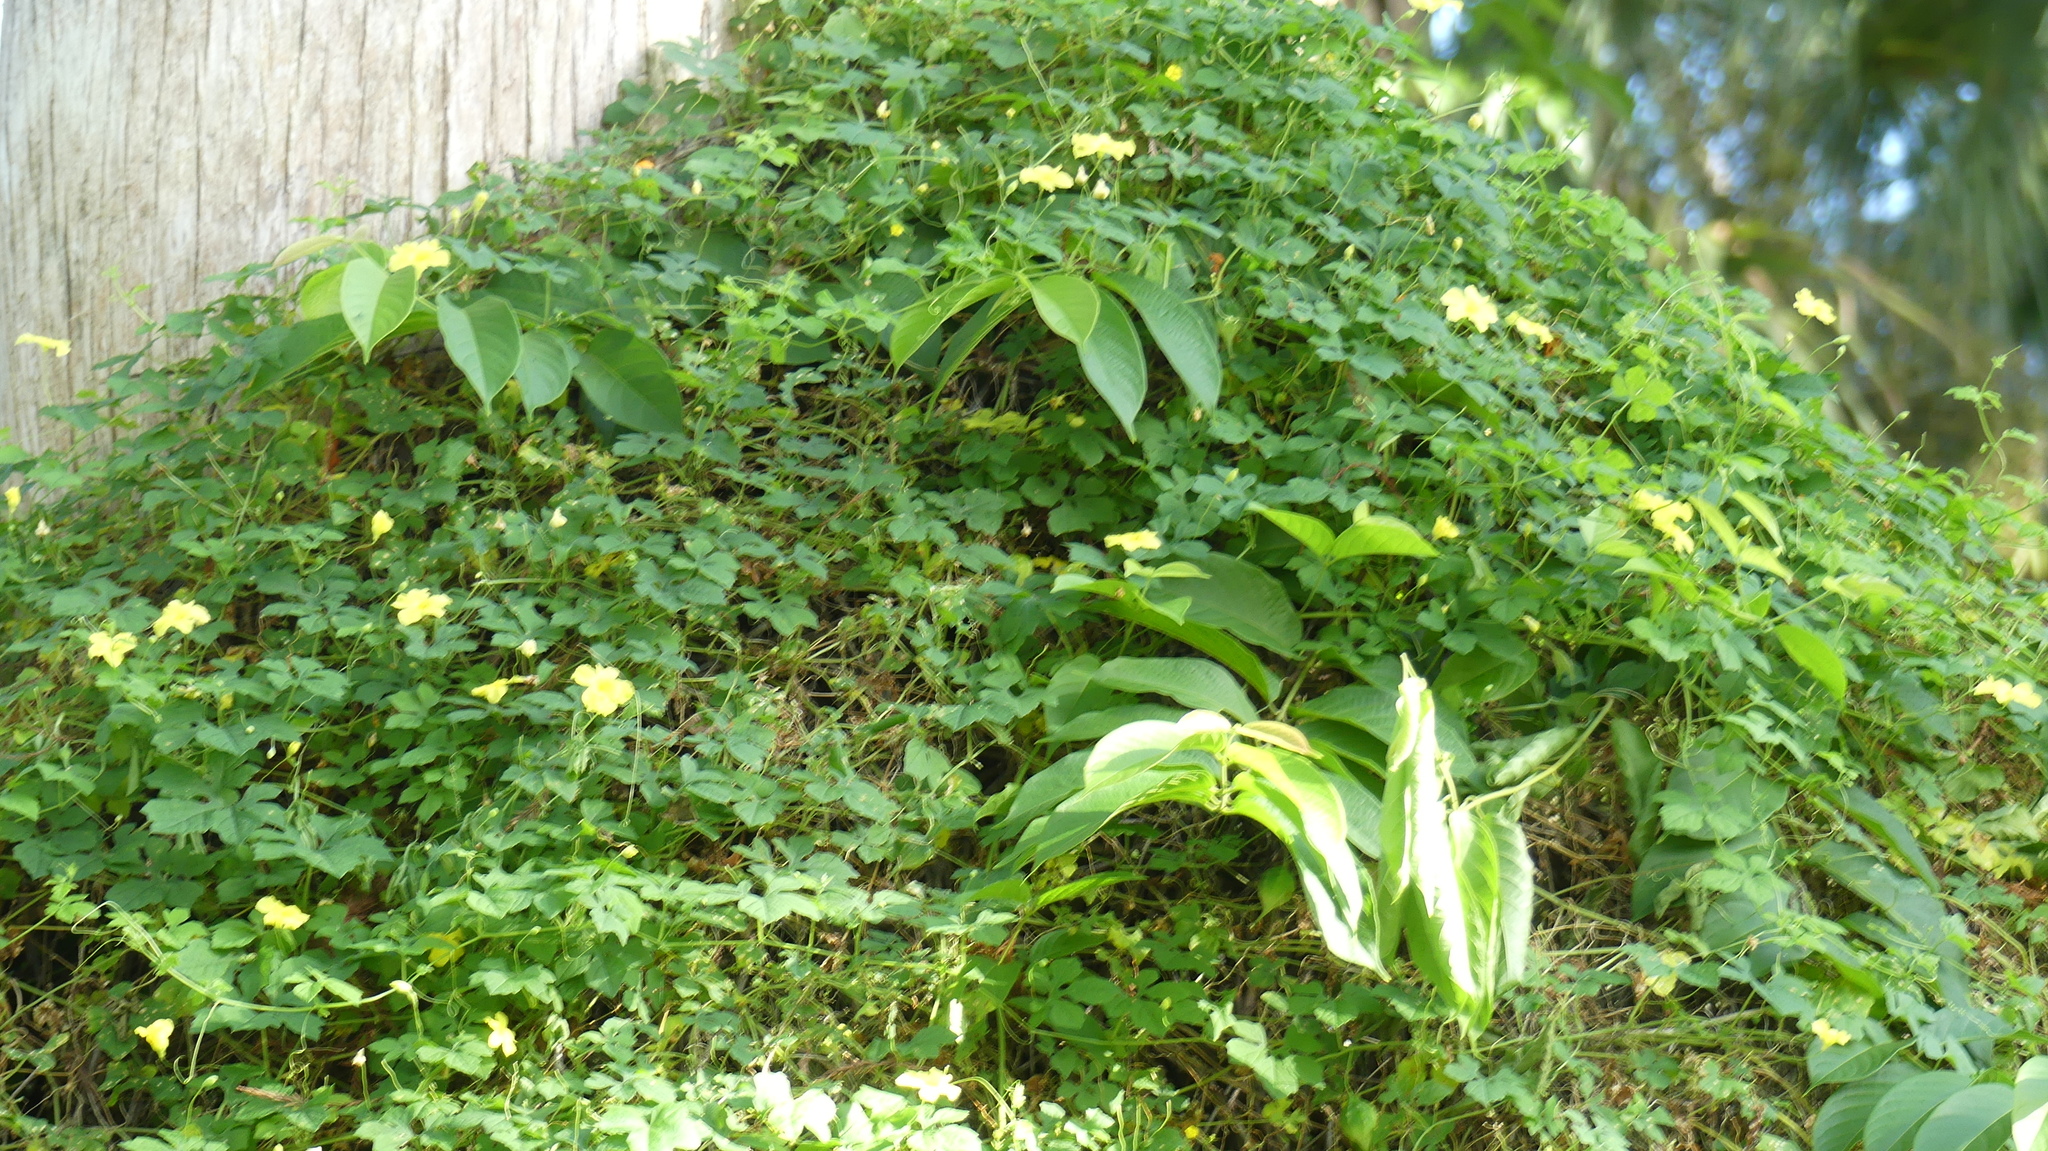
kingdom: Plantae
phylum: Tracheophyta
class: Magnoliopsida
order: Cucurbitales
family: Cucurbitaceae
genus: Momordica
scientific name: Momordica charantia
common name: Balsampear
